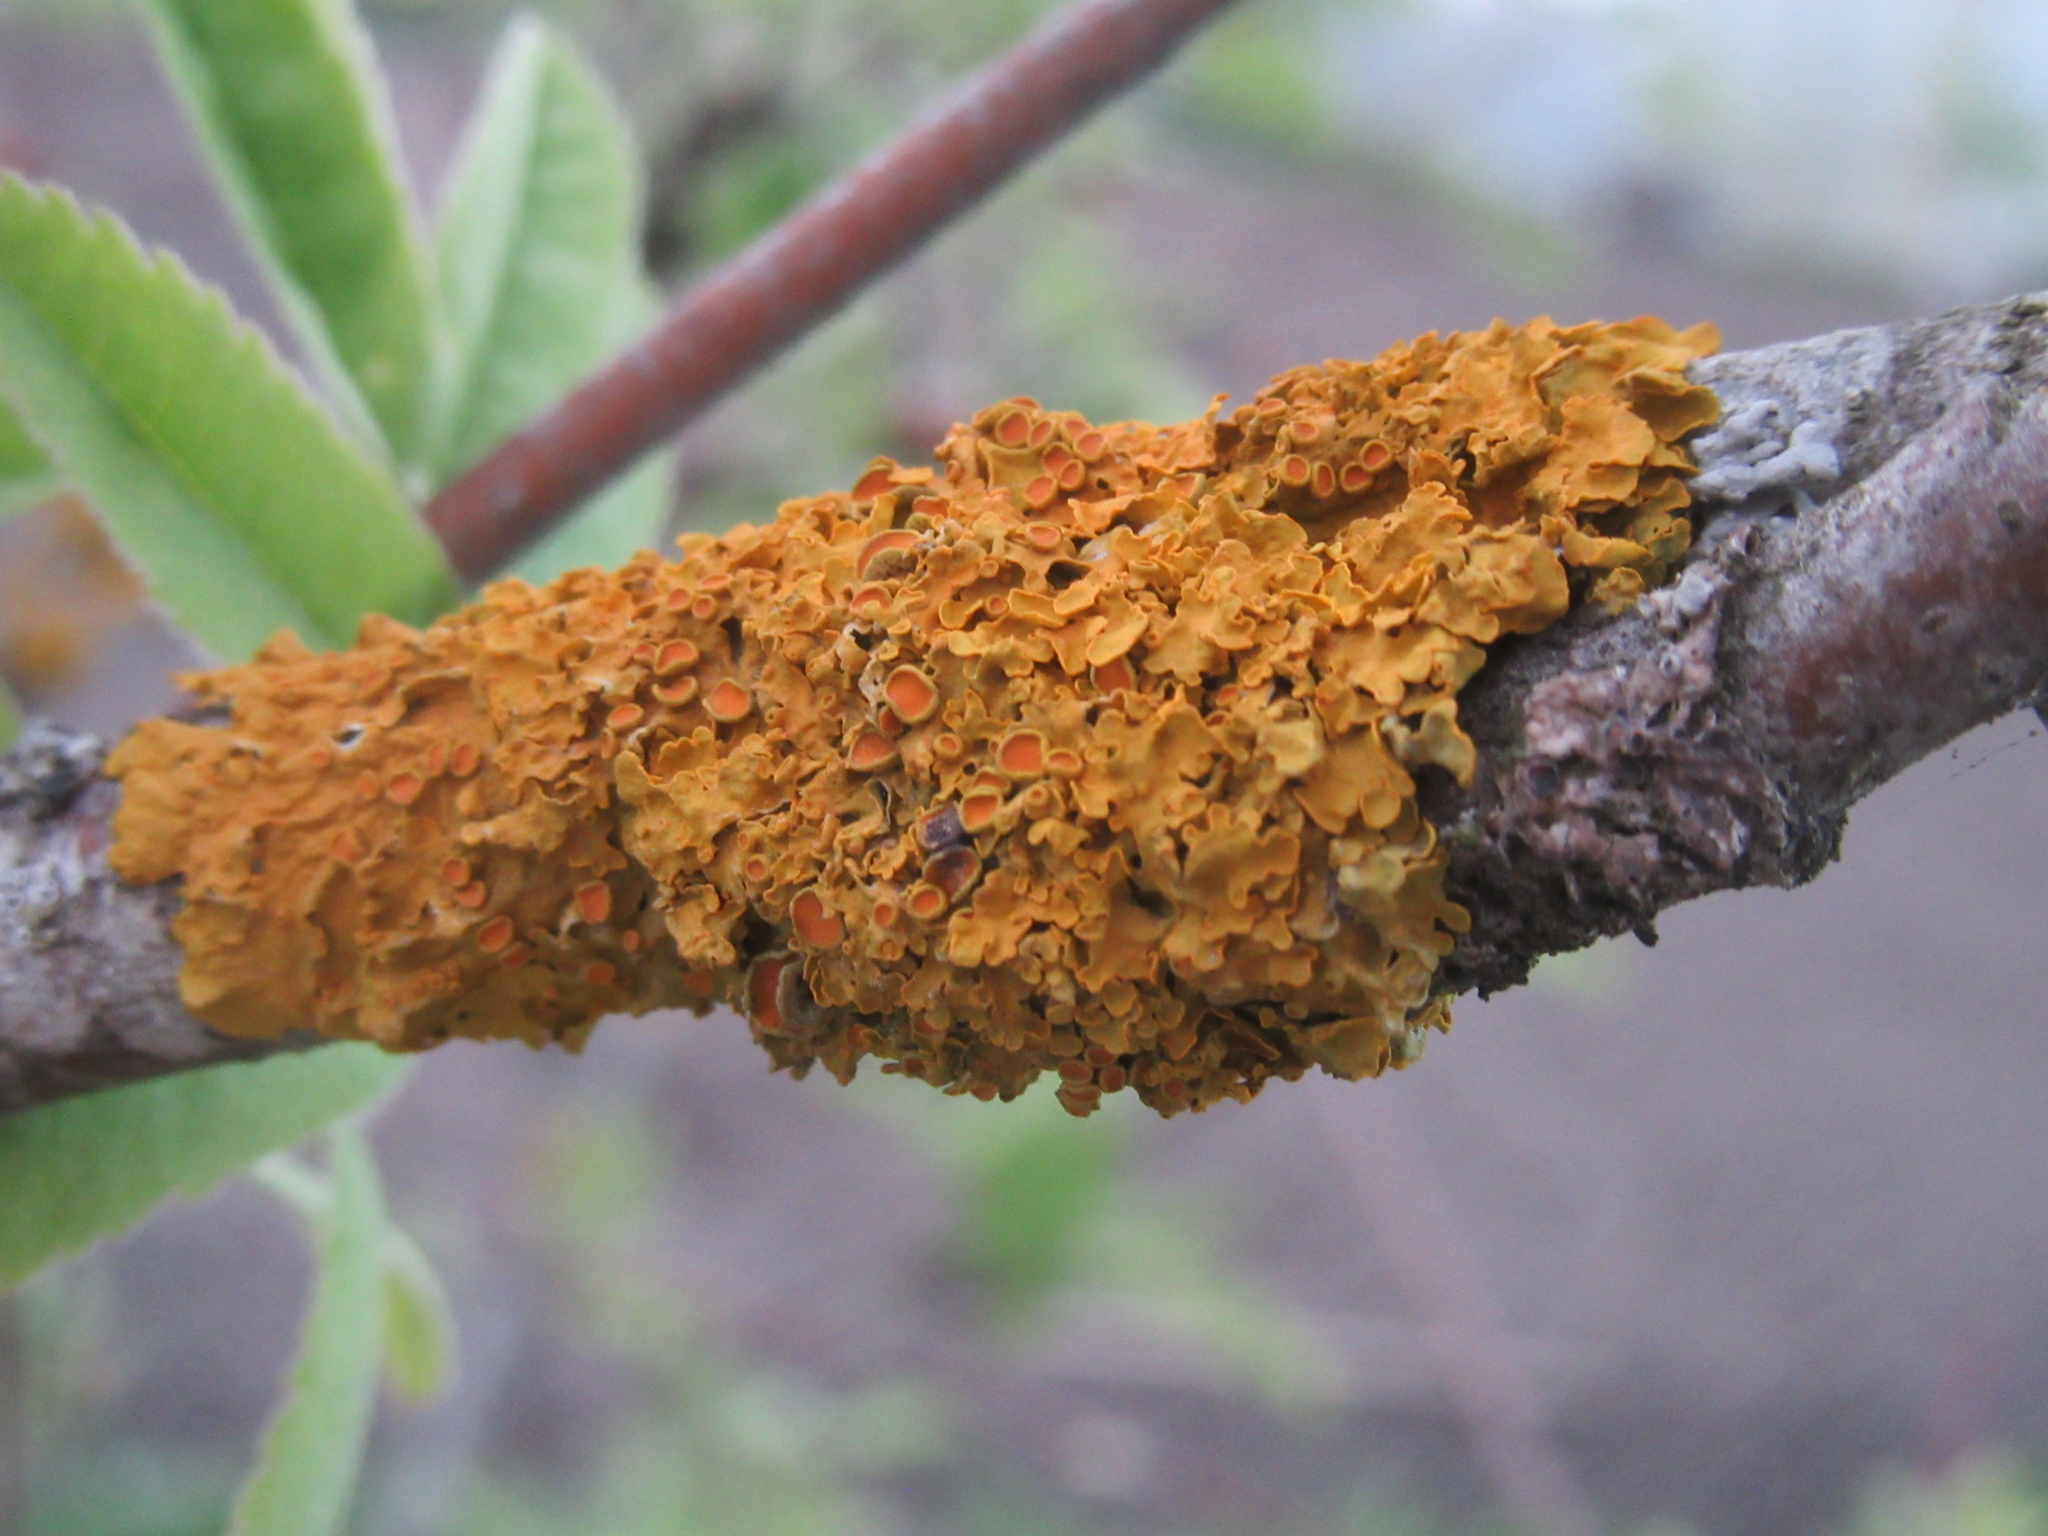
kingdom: Fungi
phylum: Ascomycota
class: Lecanoromycetes
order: Teloschistales
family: Teloschistaceae
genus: Xanthoria
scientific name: Xanthoria parietina
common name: Common orange lichen
